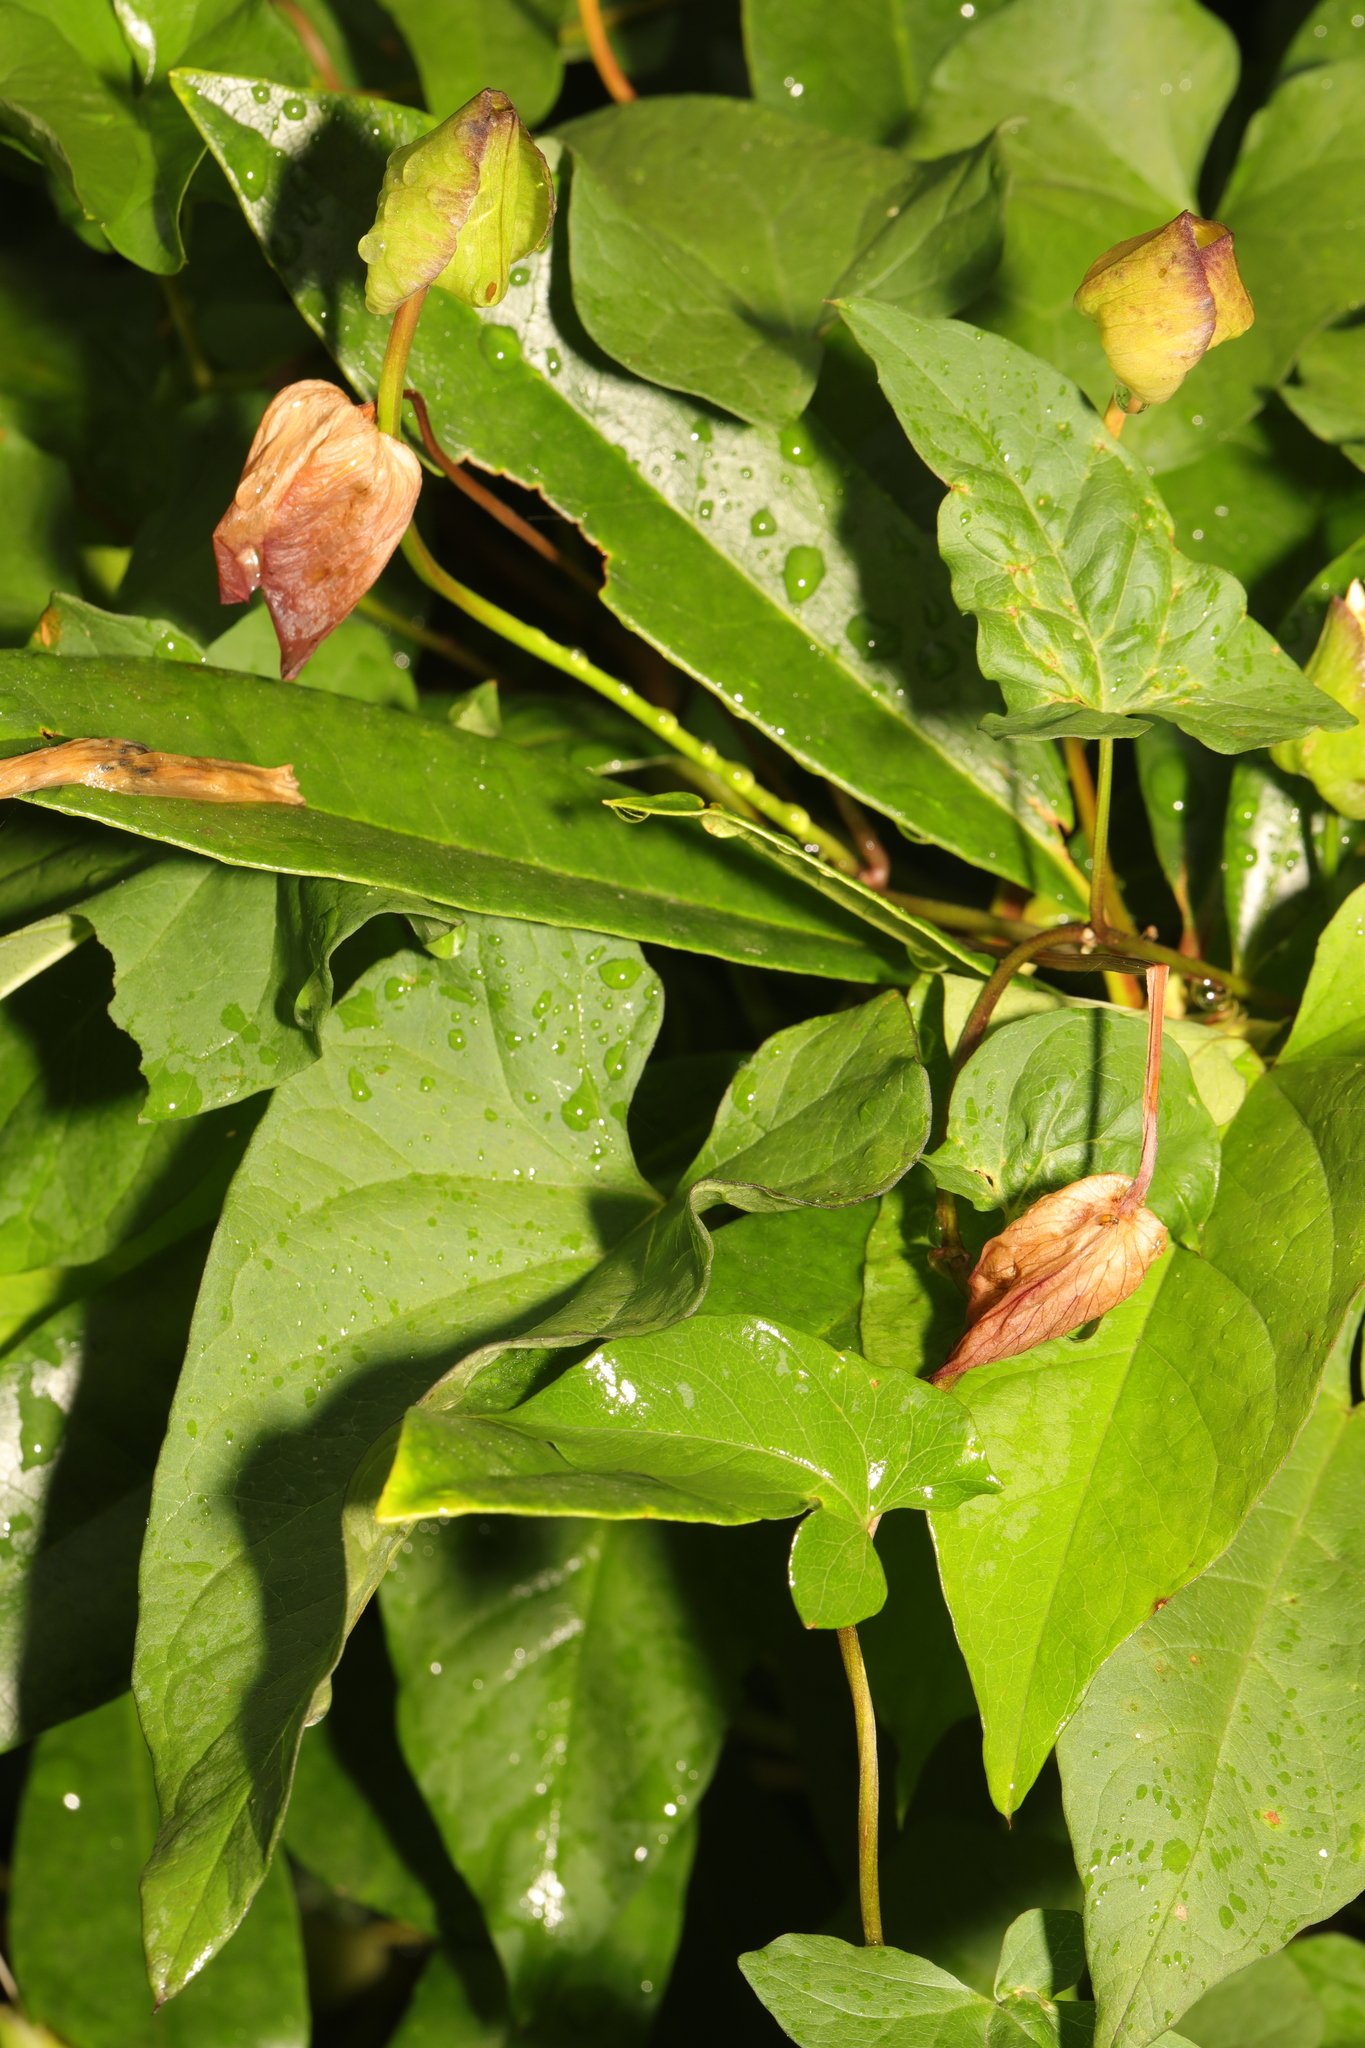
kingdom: Plantae
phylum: Tracheophyta
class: Magnoliopsida
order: Solanales
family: Convolvulaceae
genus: Calystegia
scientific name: Calystegia silvatica
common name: Large bindweed
